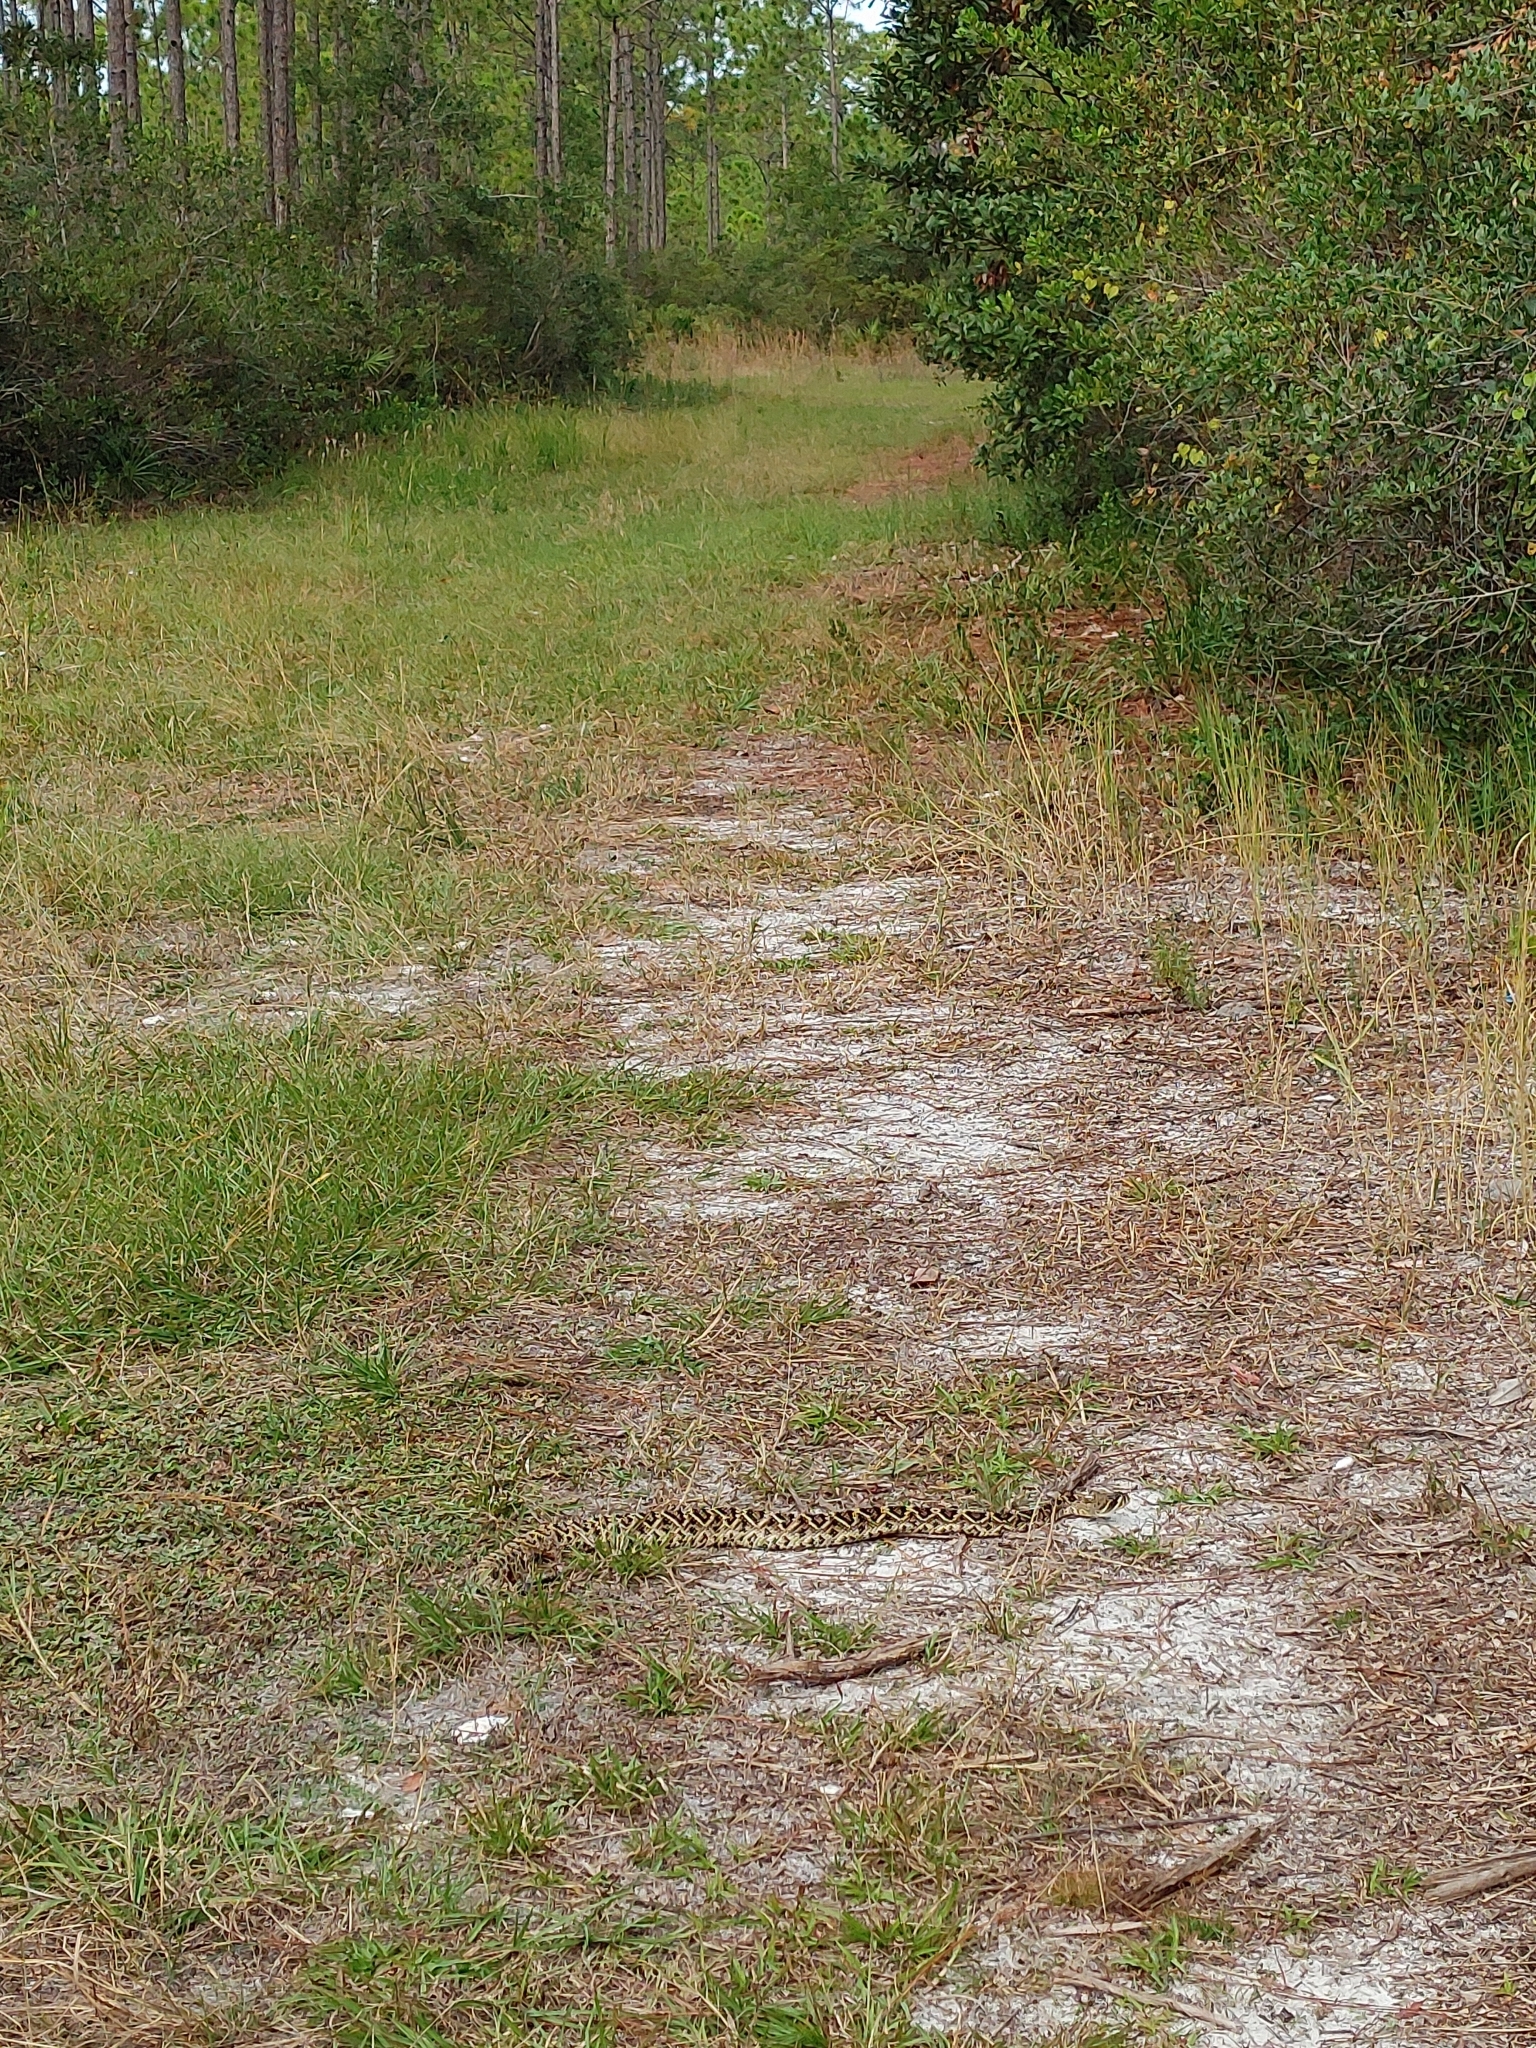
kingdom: Animalia
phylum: Chordata
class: Squamata
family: Viperidae
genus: Crotalus
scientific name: Crotalus adamanteus
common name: Eastern diamondback rattlesnake
